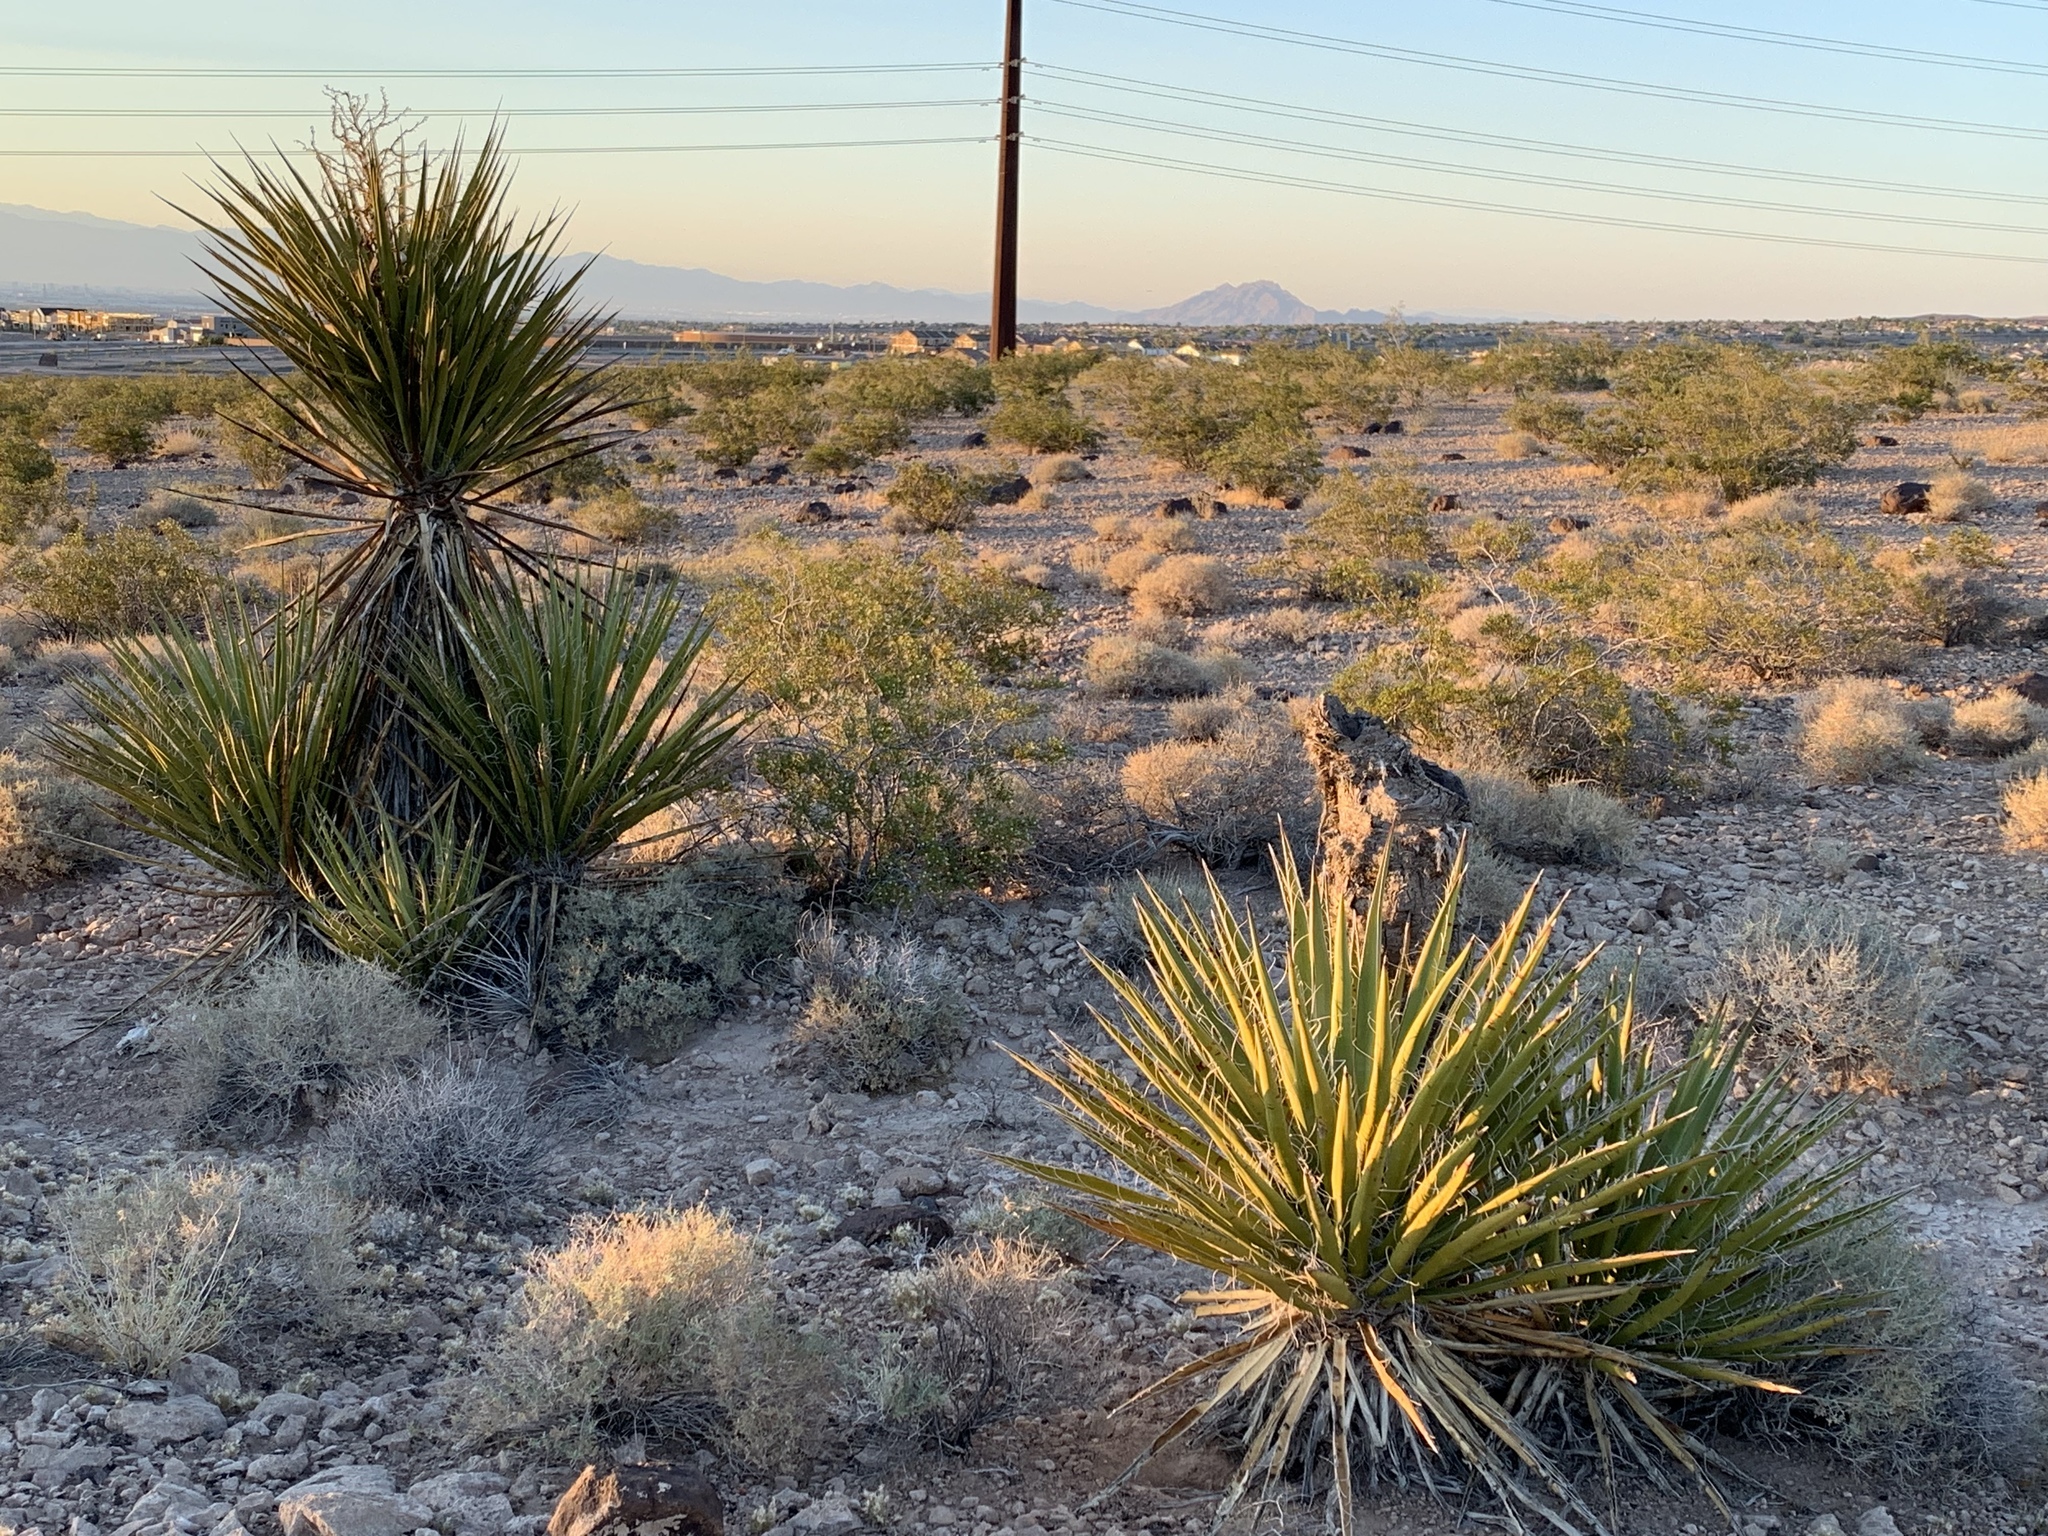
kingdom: Plantae
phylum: Tracheophyta
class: Liliopsida
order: Asparagales
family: Asparagaceae
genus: Yucca
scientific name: Yucca schidigera
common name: Mojave yucca
